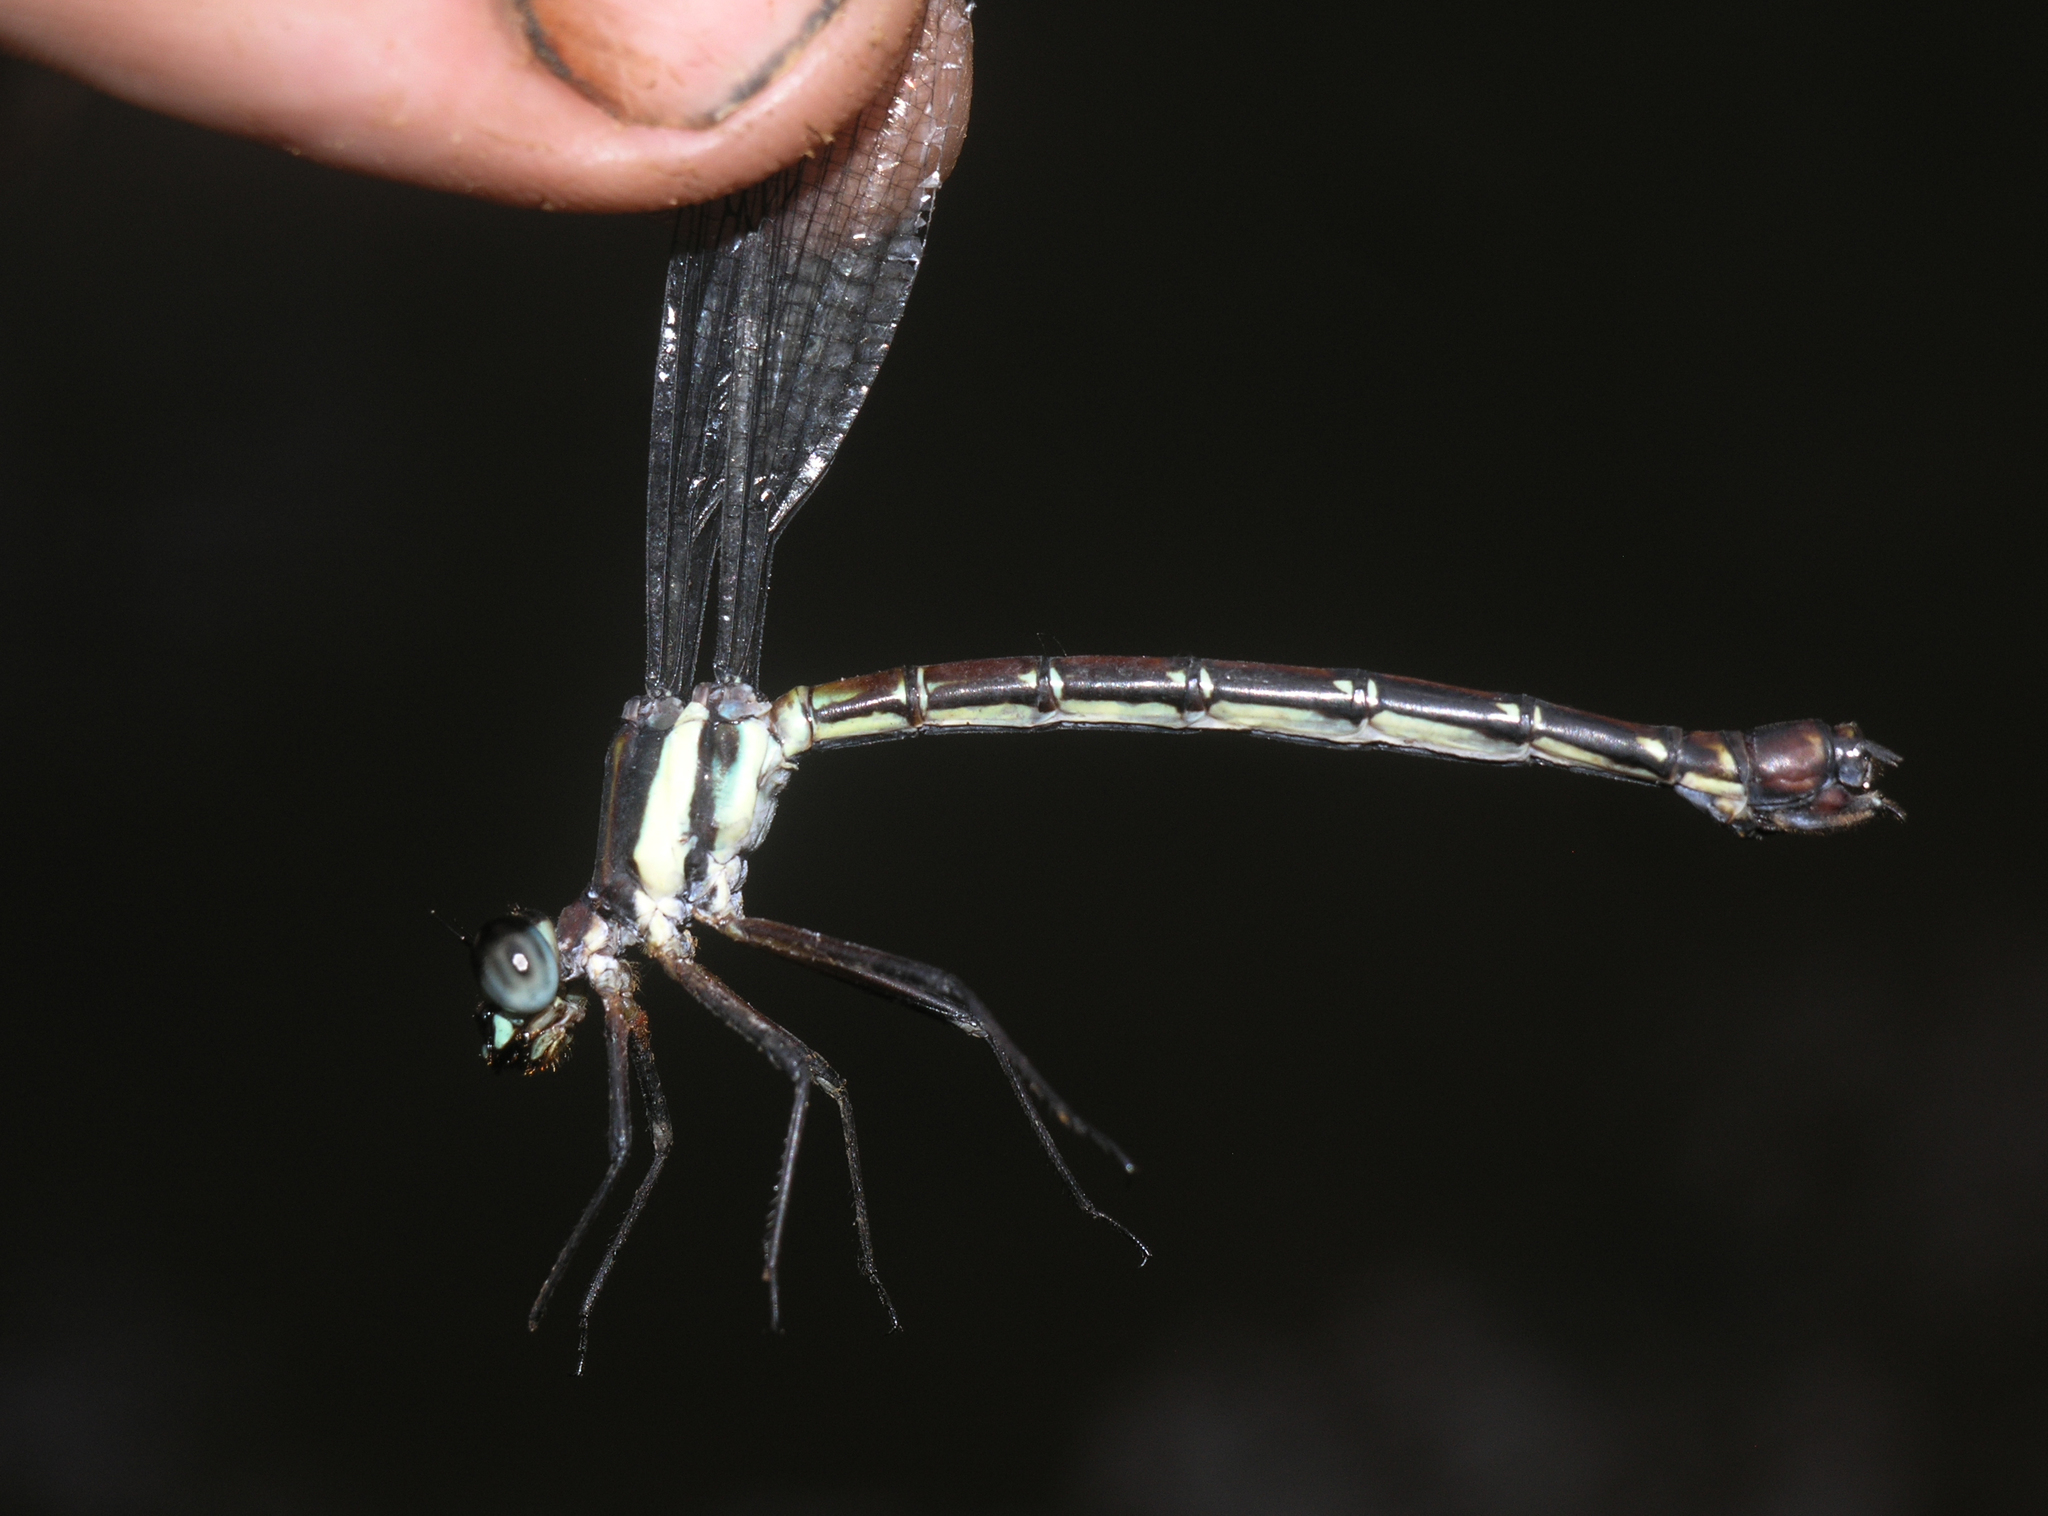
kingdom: Animalia
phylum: Arthropoda
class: Insecta
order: Odonata
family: Philogangidae
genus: Philoganga
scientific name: Philoganga loringae
